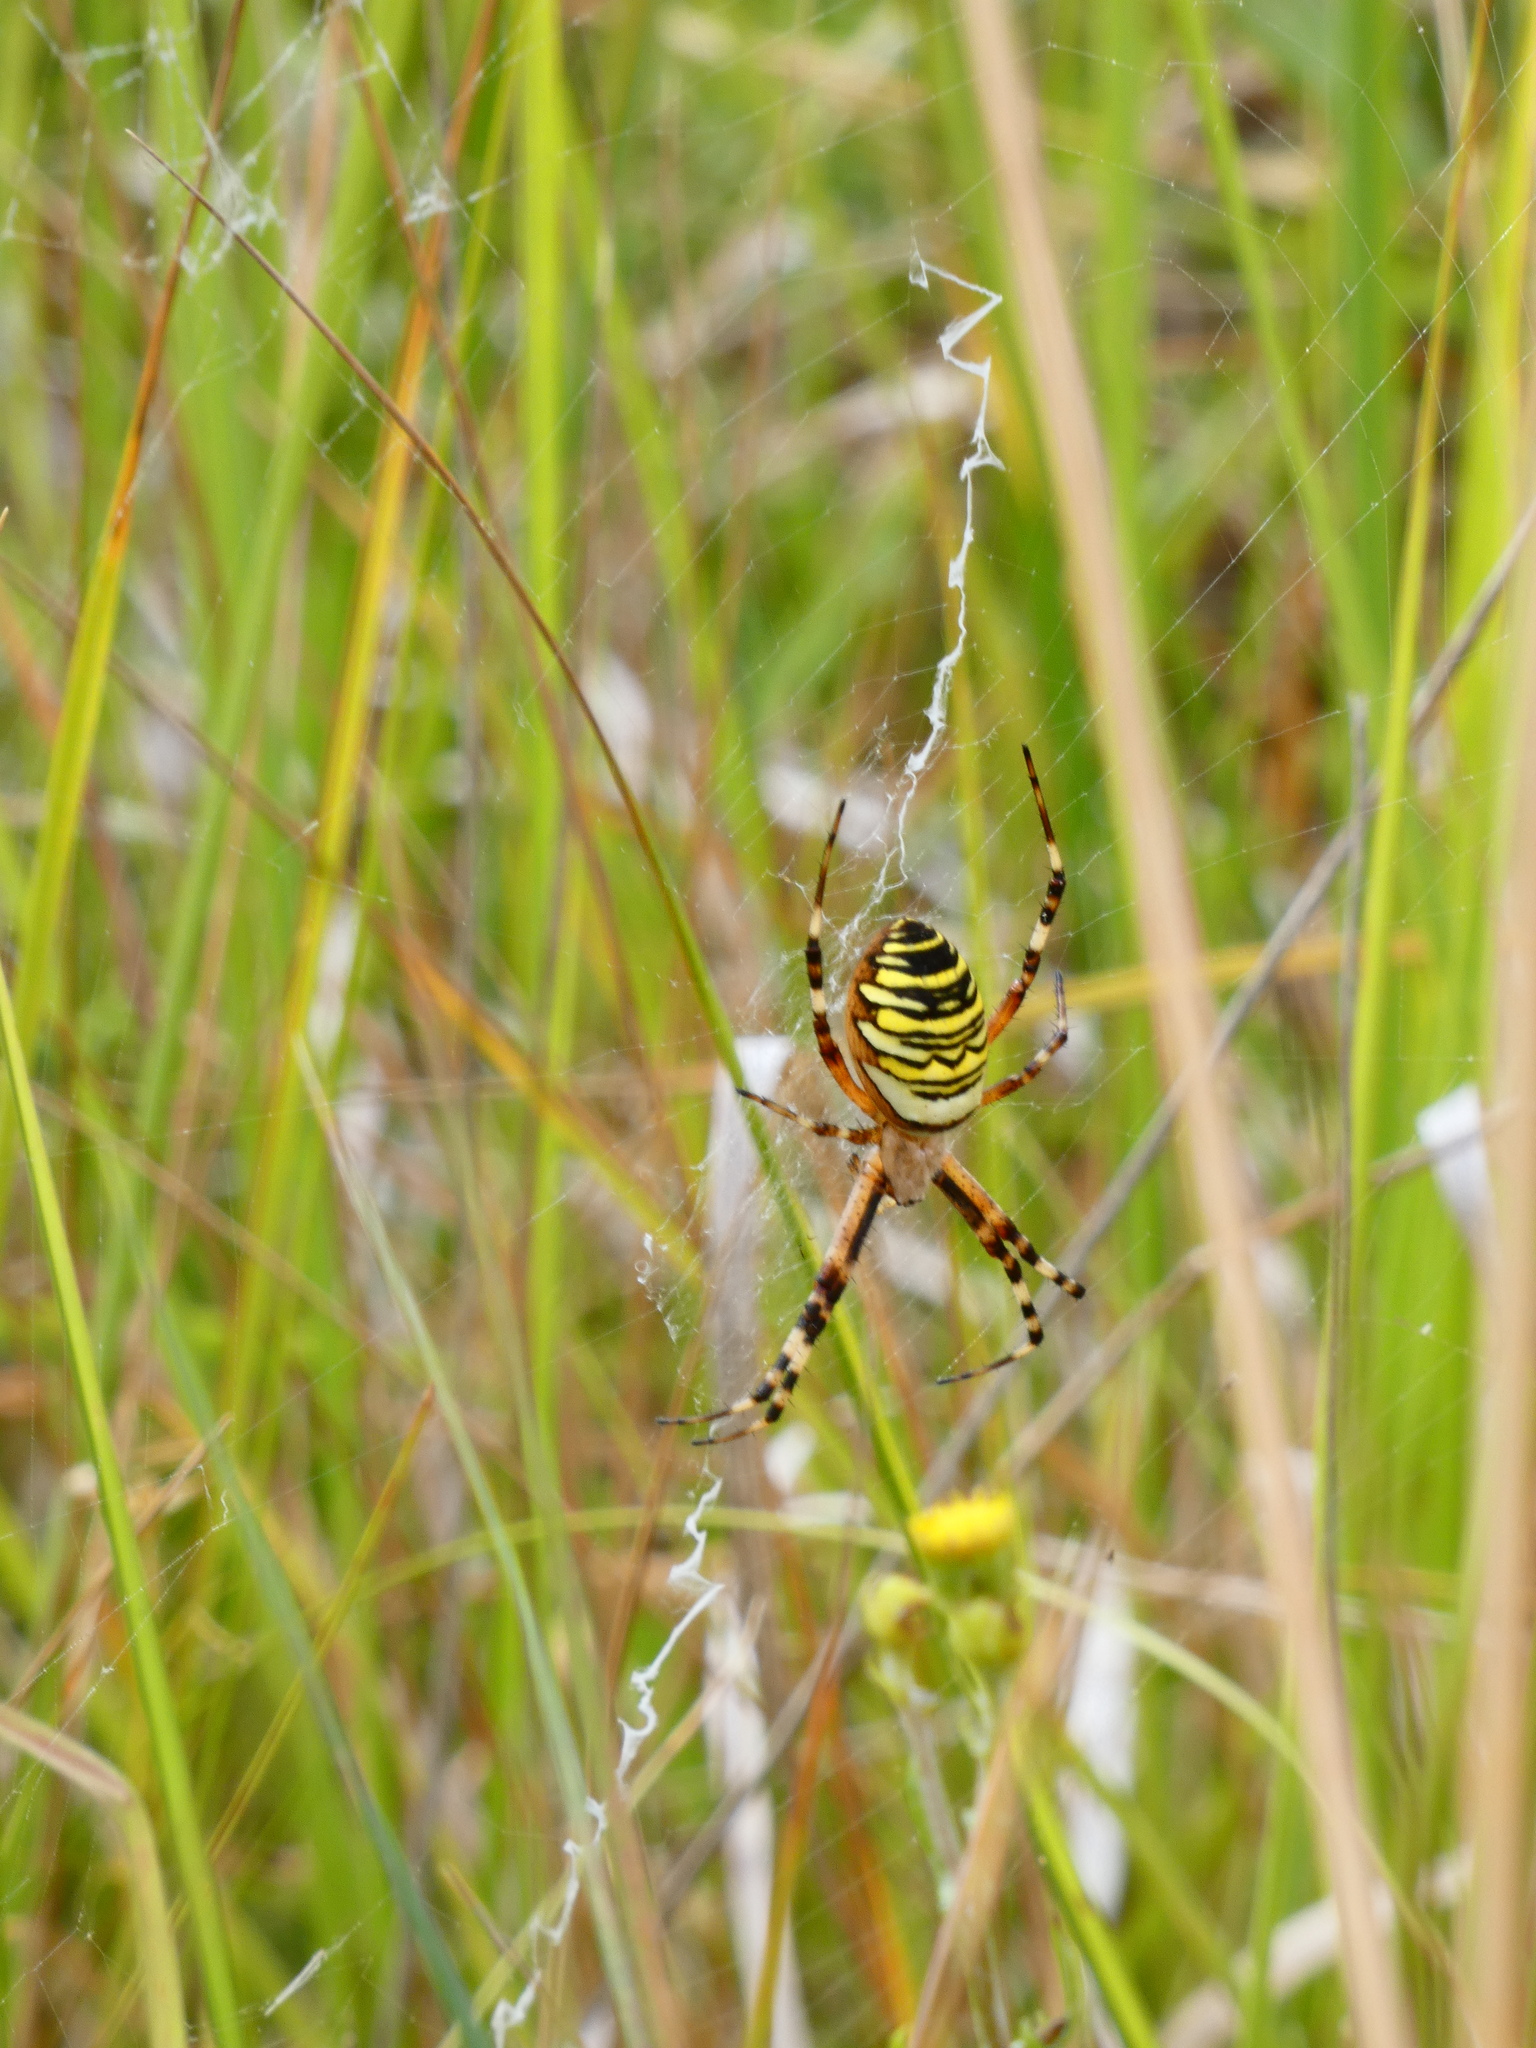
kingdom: Animalia
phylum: Arthropoda
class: Arachnida
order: Araneae
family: Araneidae
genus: Argiope
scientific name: Argiope bruennichi
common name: Wasp spider
